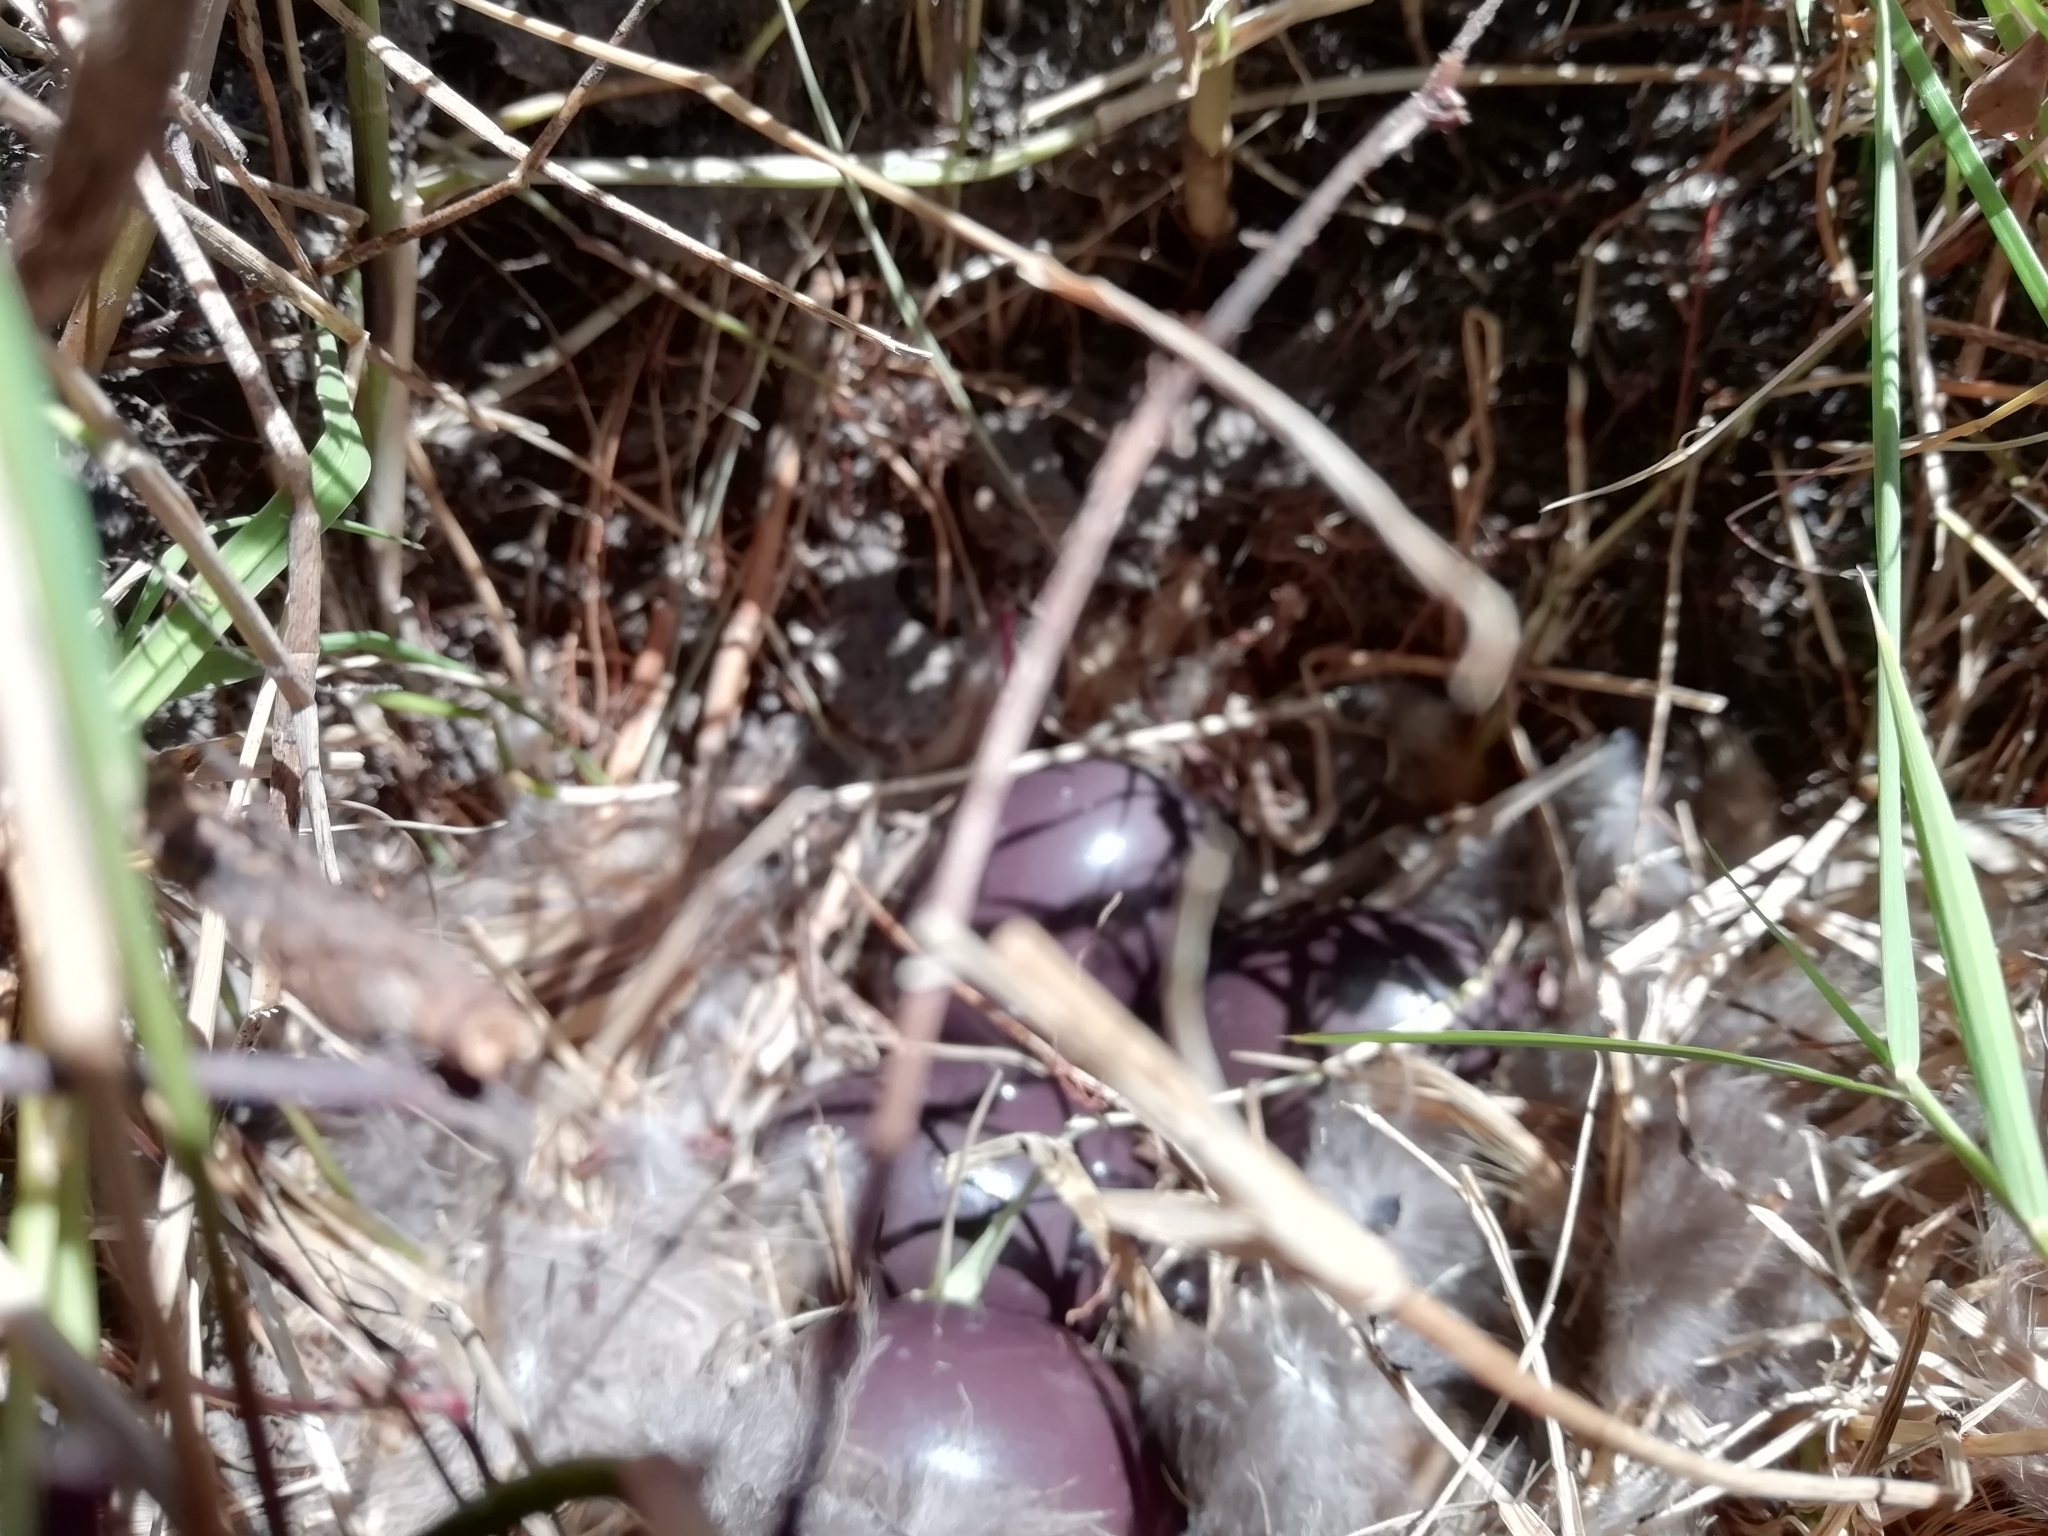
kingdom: Animalia
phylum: Chordata
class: Aves
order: Tinamiformes
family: Tinamidae
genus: Nothura
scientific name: Nothura maculosa
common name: Spotted nothura
